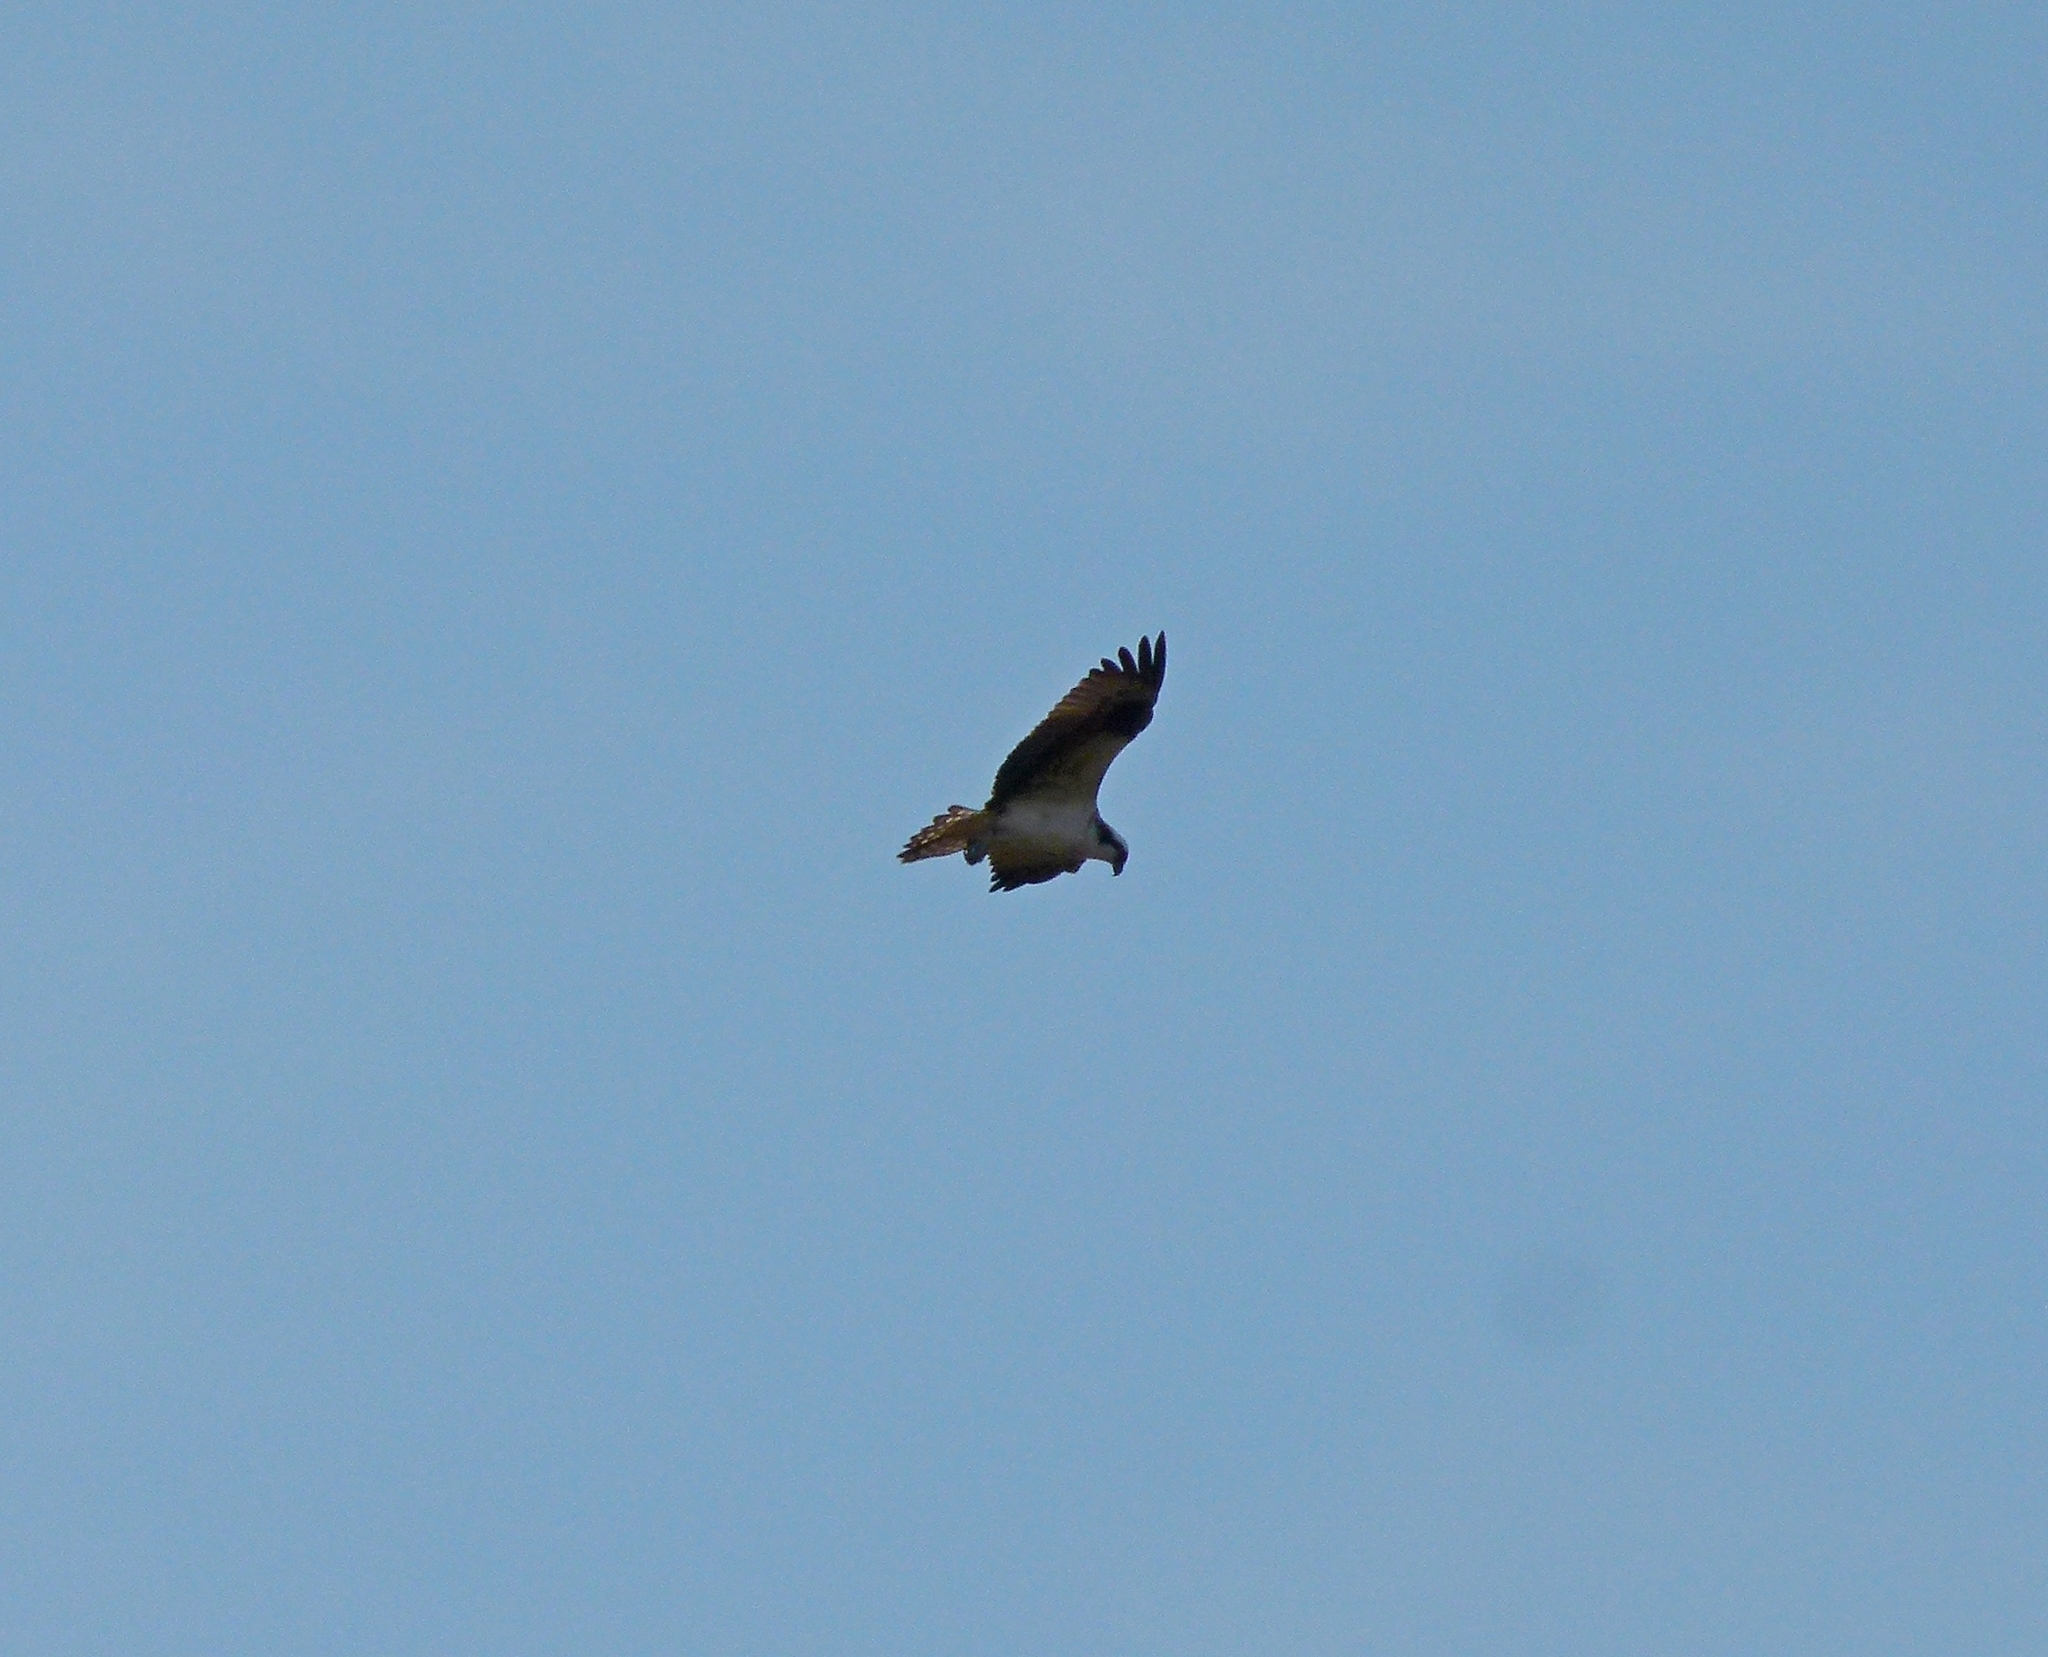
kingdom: Animalia
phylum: Chordata
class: Aves
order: Accipitriformes
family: Pandionidae
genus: Pandion
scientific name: Pandion haliaetus
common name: Osprey
